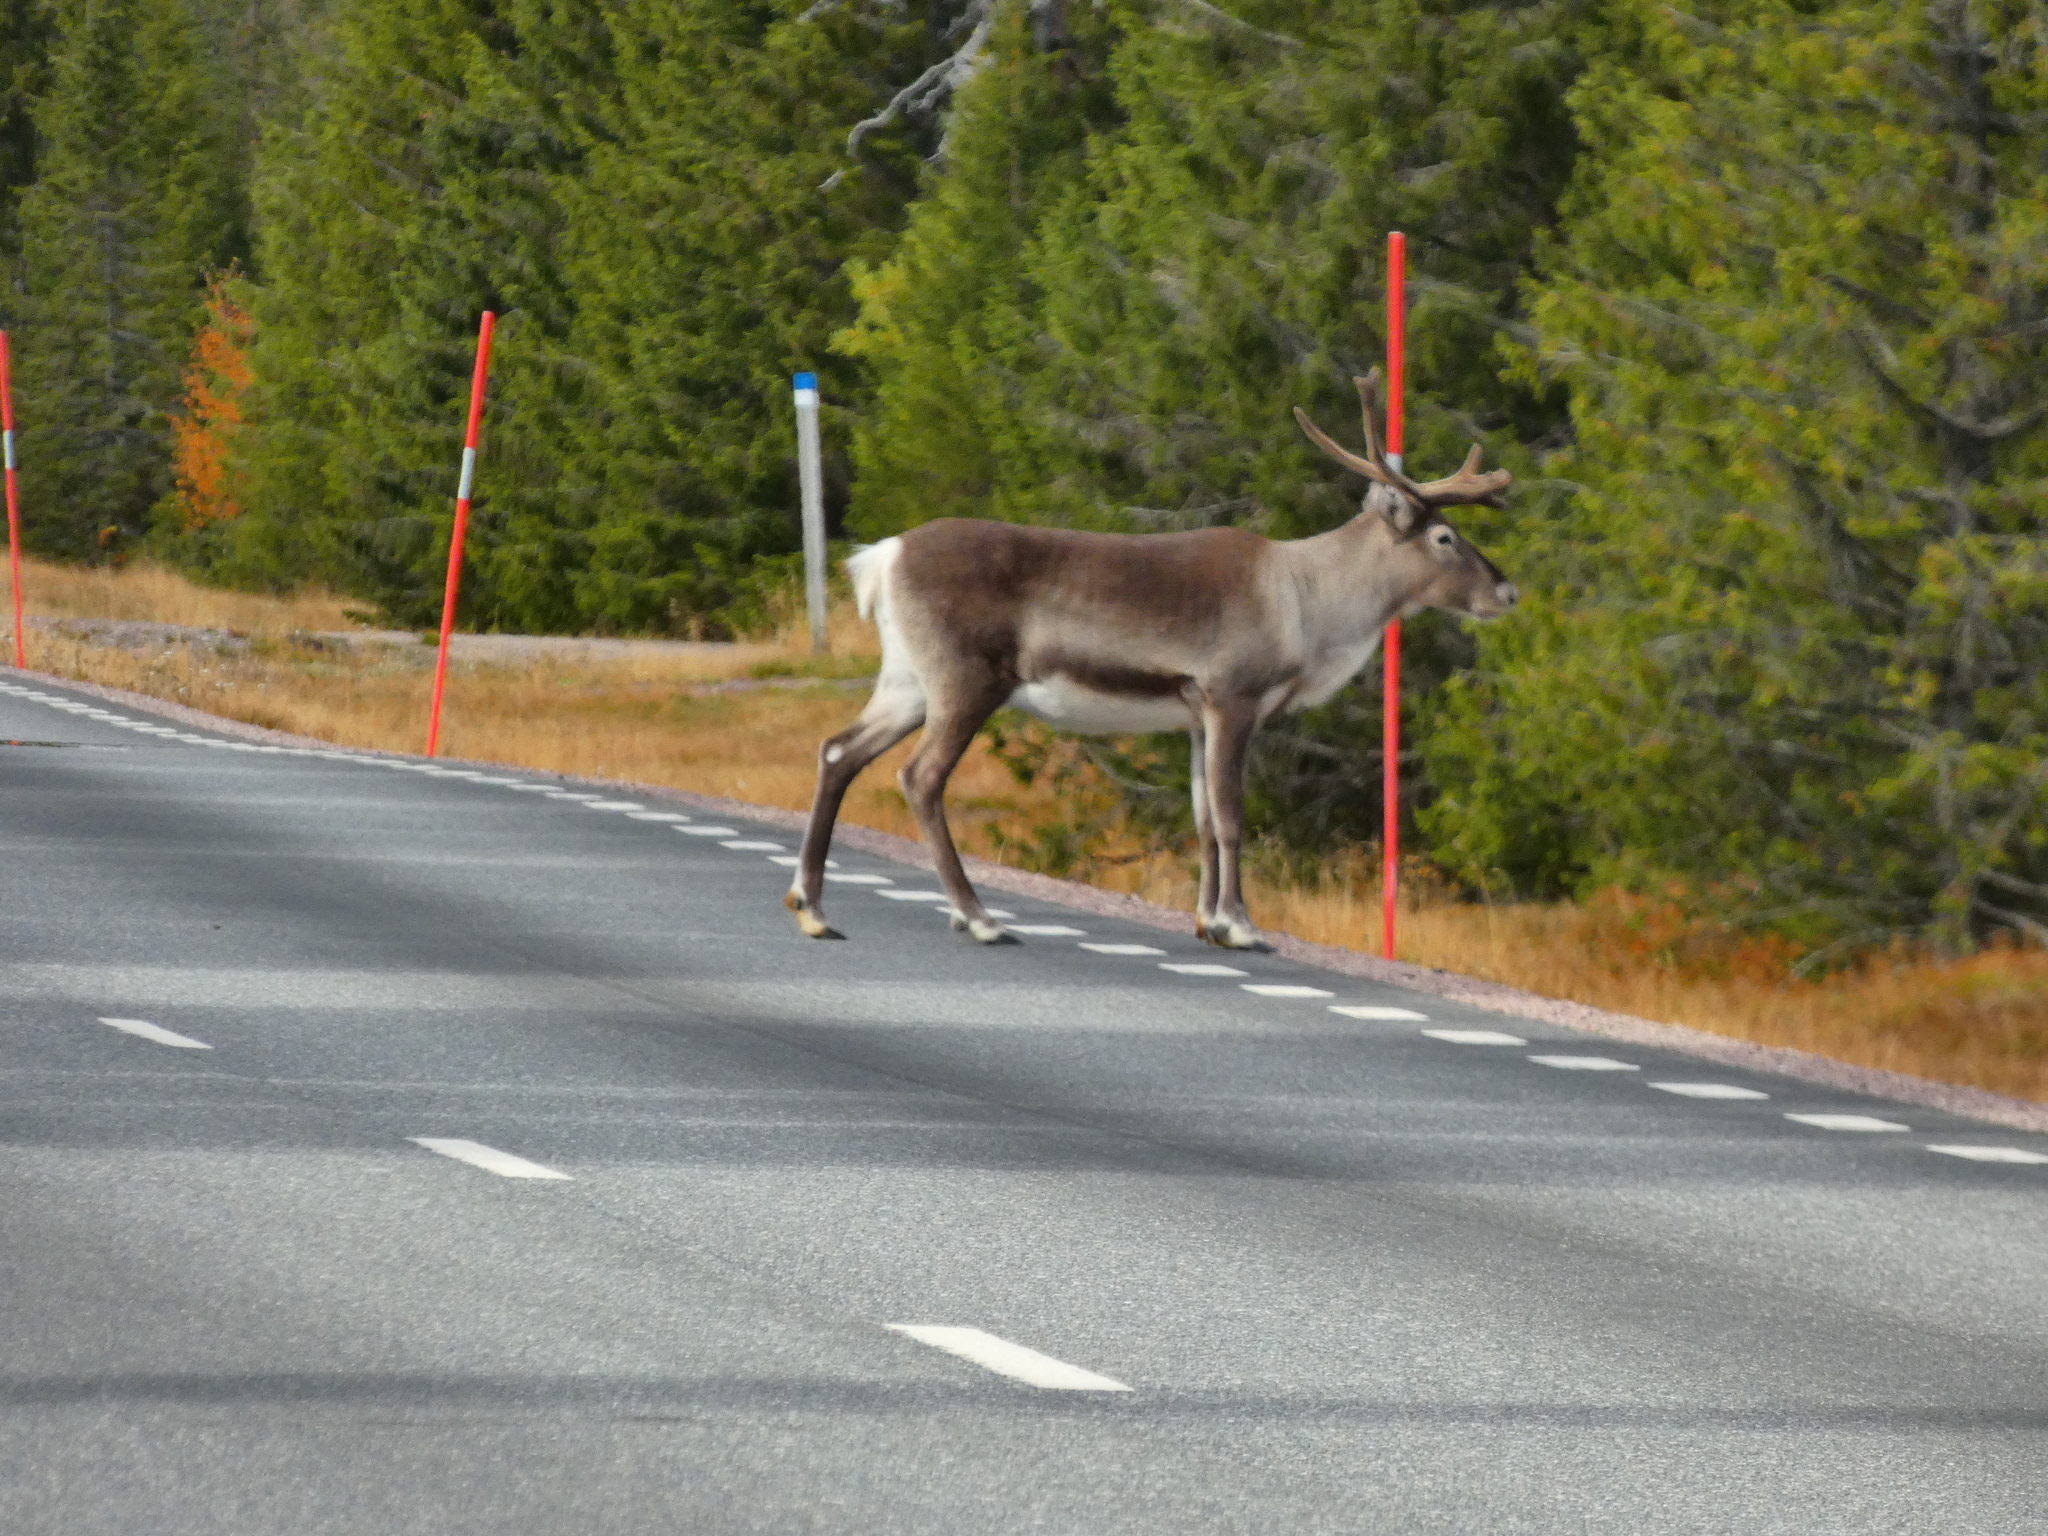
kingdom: Animalia
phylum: Chordata
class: Mammalia
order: Artiodactyla
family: Cervidae
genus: Rangifer
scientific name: Rangifer tarandus
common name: Reindeer
